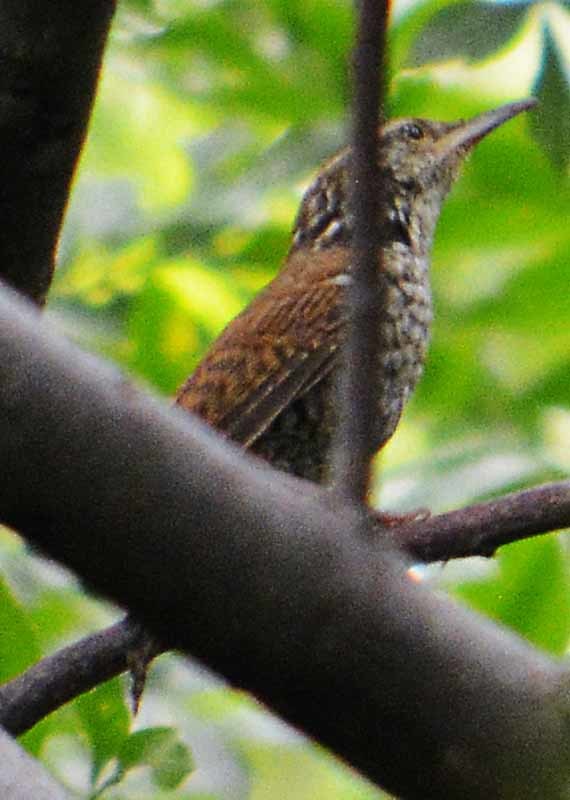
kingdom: Animalia
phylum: Chordata
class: Aves
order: Passeriformes
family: Troglodytidae
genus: Thryophilus
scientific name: Thryophilus pleurostictus
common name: Banded wren
